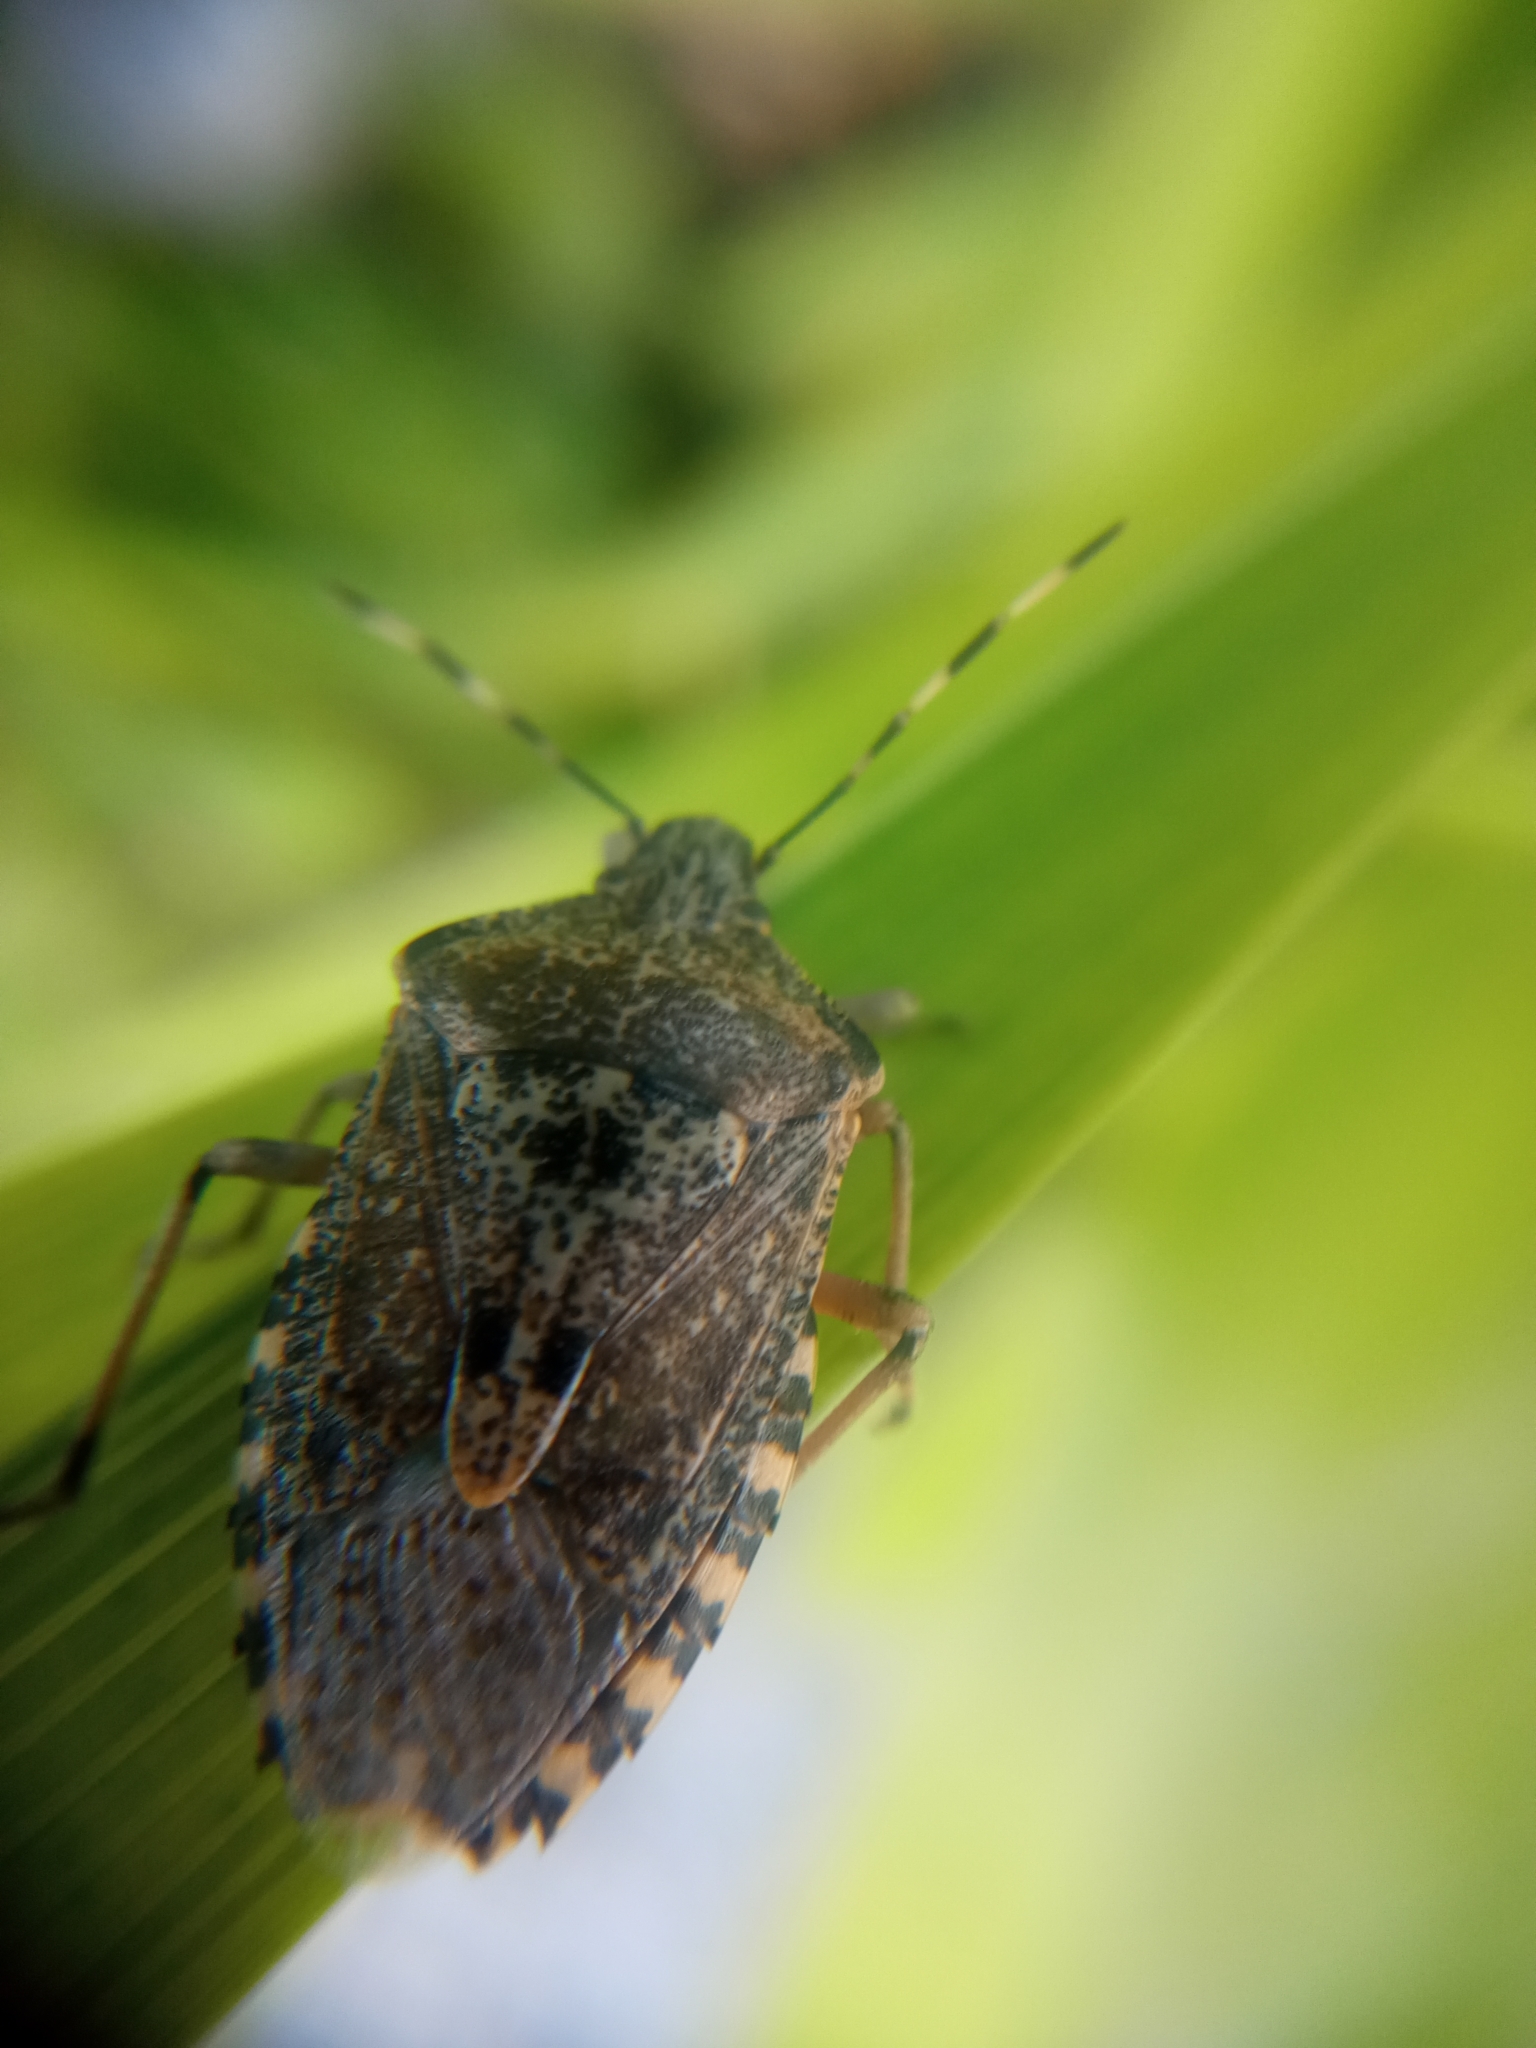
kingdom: Animalia
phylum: Arthropoda
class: Insecta
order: Hemiptera
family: Pentatomidae
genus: Rhaphigaster
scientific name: Rhaphigaster nebulosa
